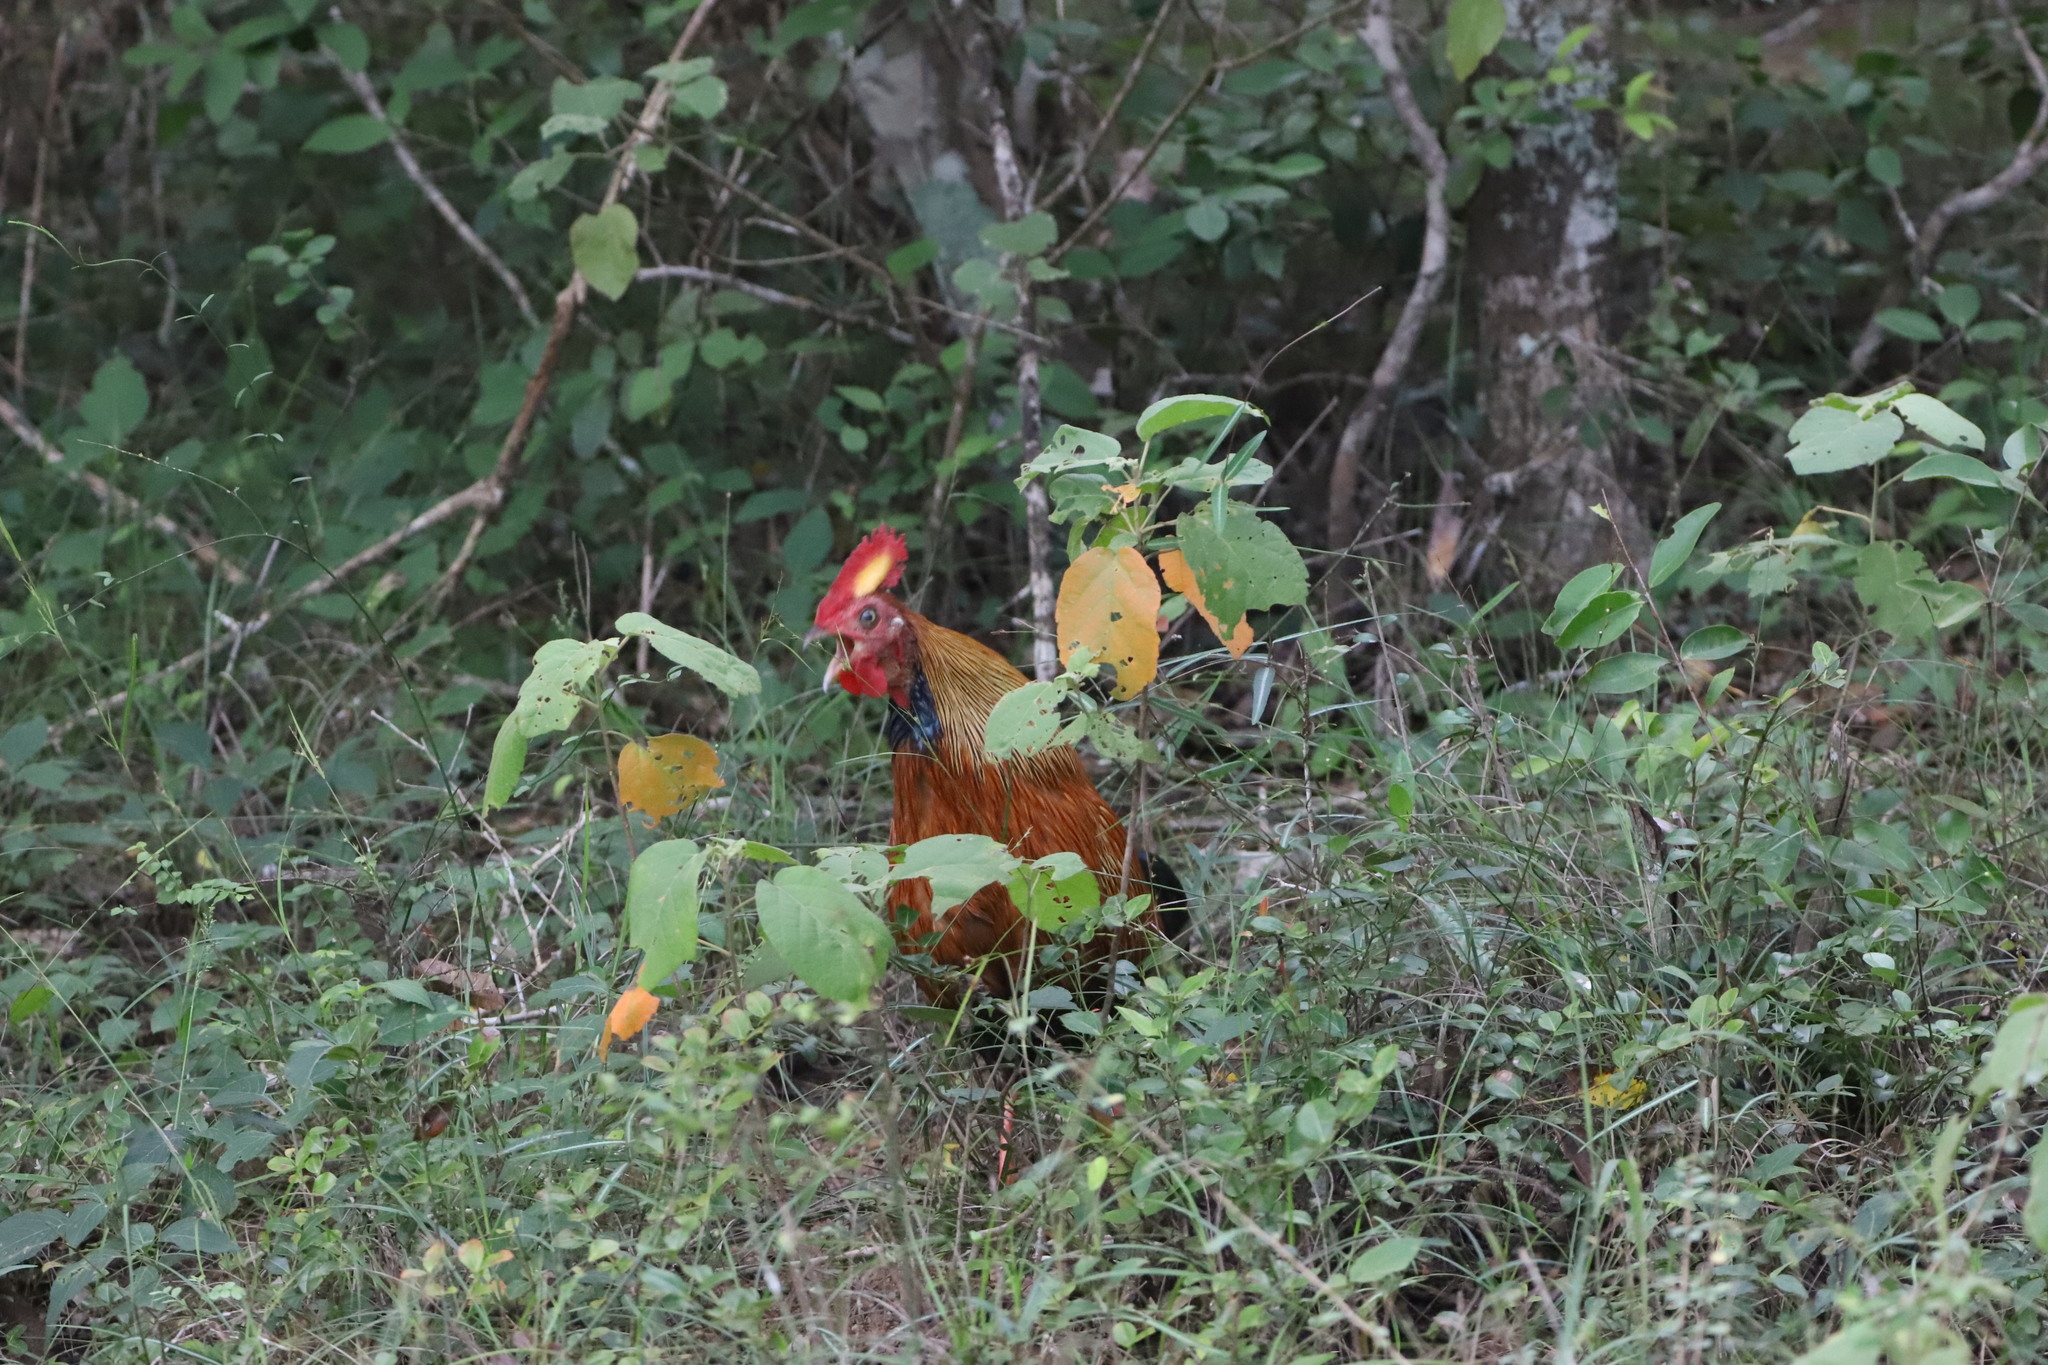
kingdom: Animalia
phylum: Chordata
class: Aves
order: Galliformes
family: Phasianidae
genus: Gallus
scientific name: Gallus lafayettii
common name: Sri lanka junglefowl
